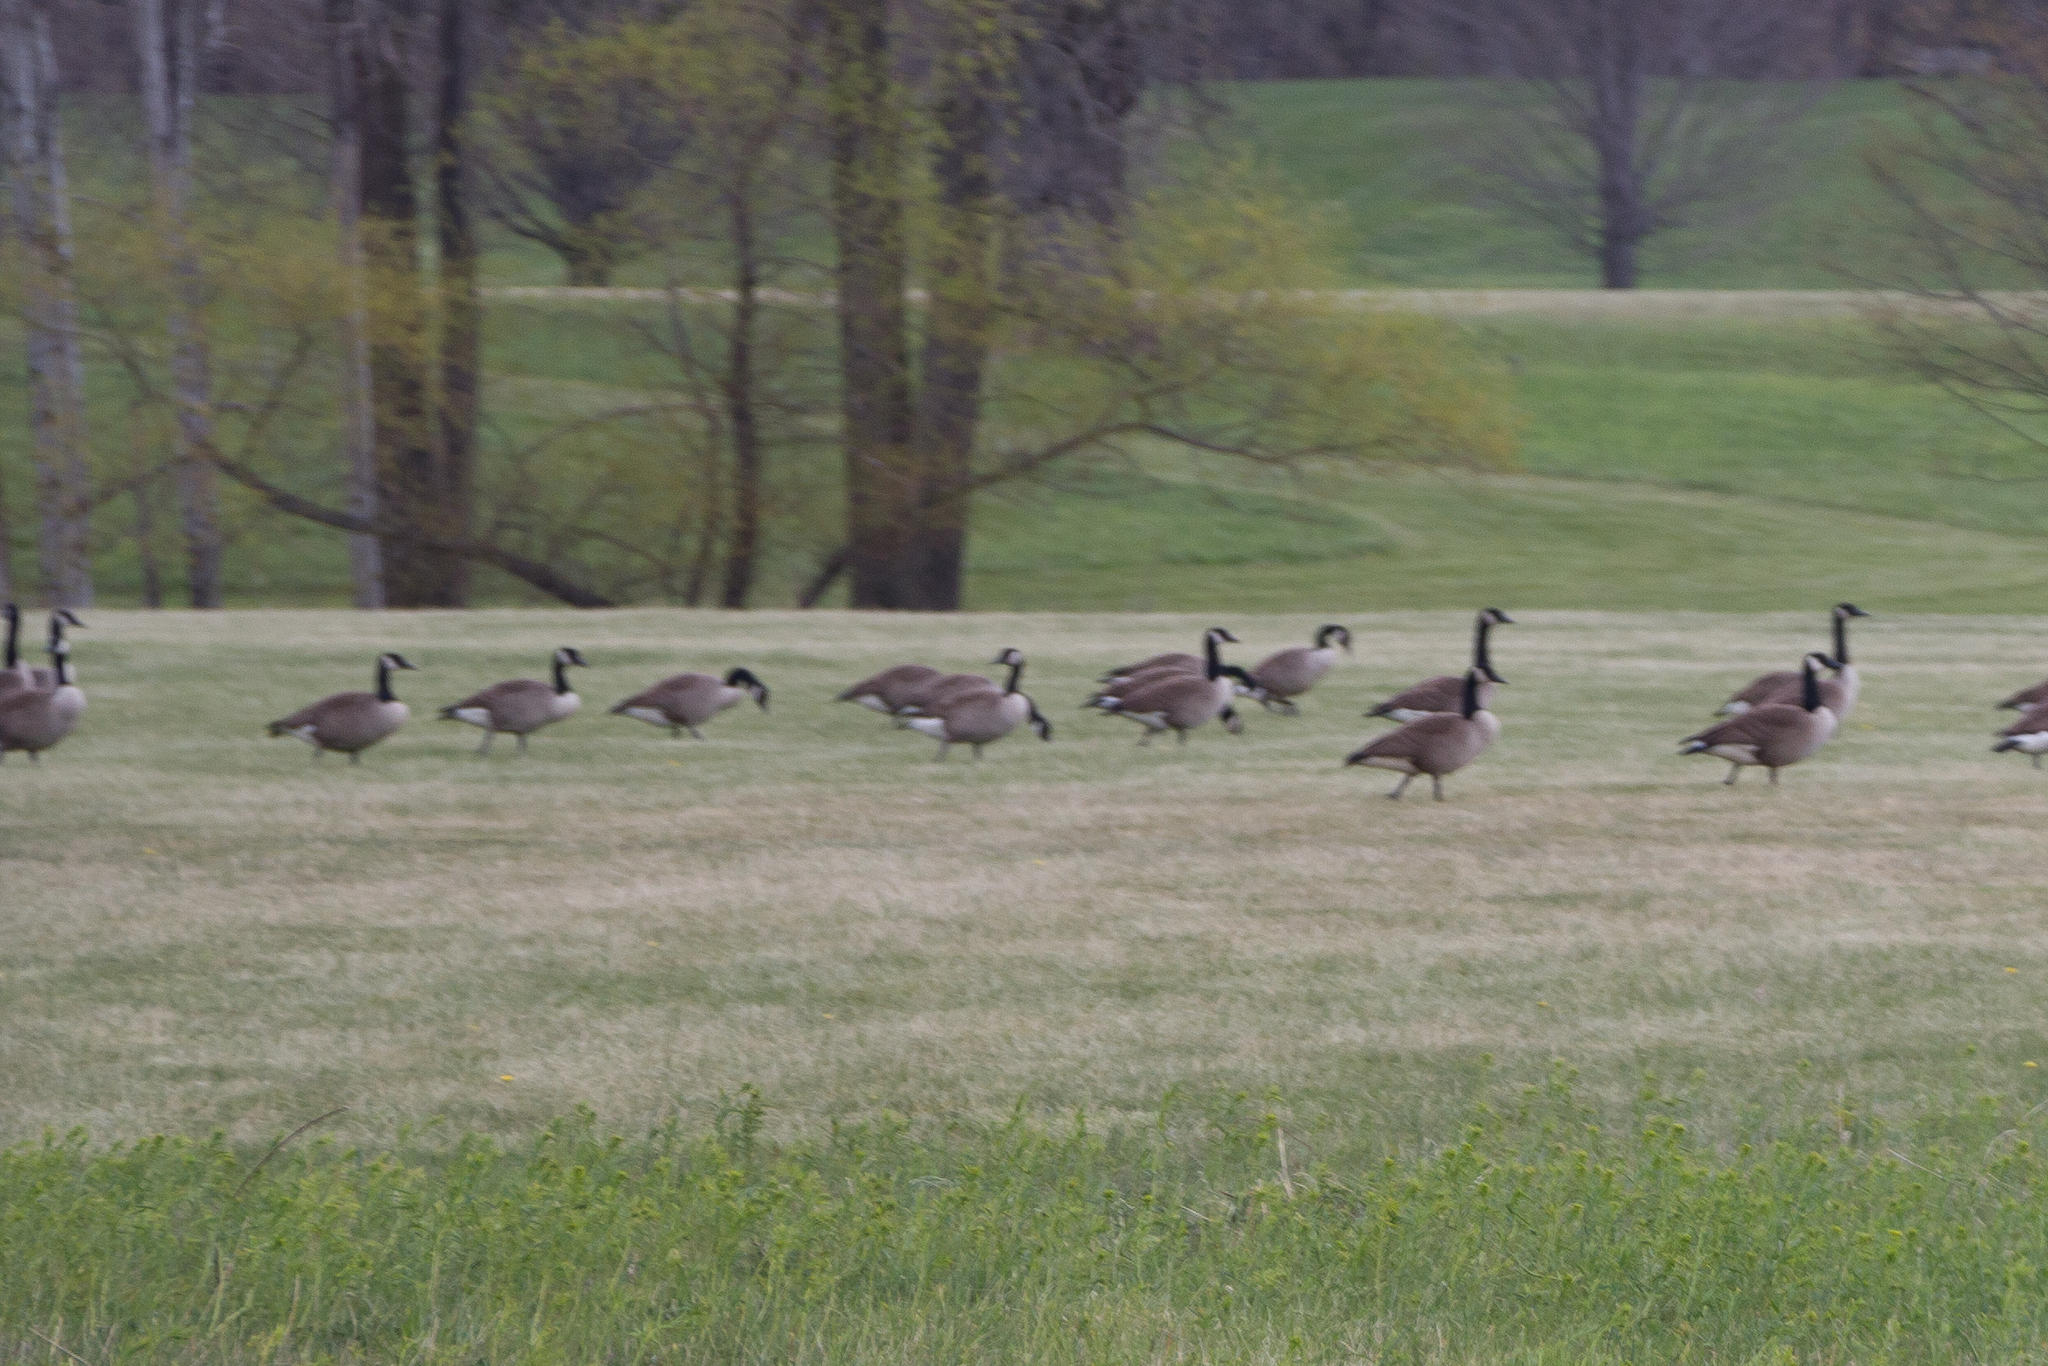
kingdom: Animalia
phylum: Chordata
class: Aves
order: Anseriformes
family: Anatidae
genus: Branta
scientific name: Branta canadensis
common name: Canada goose
